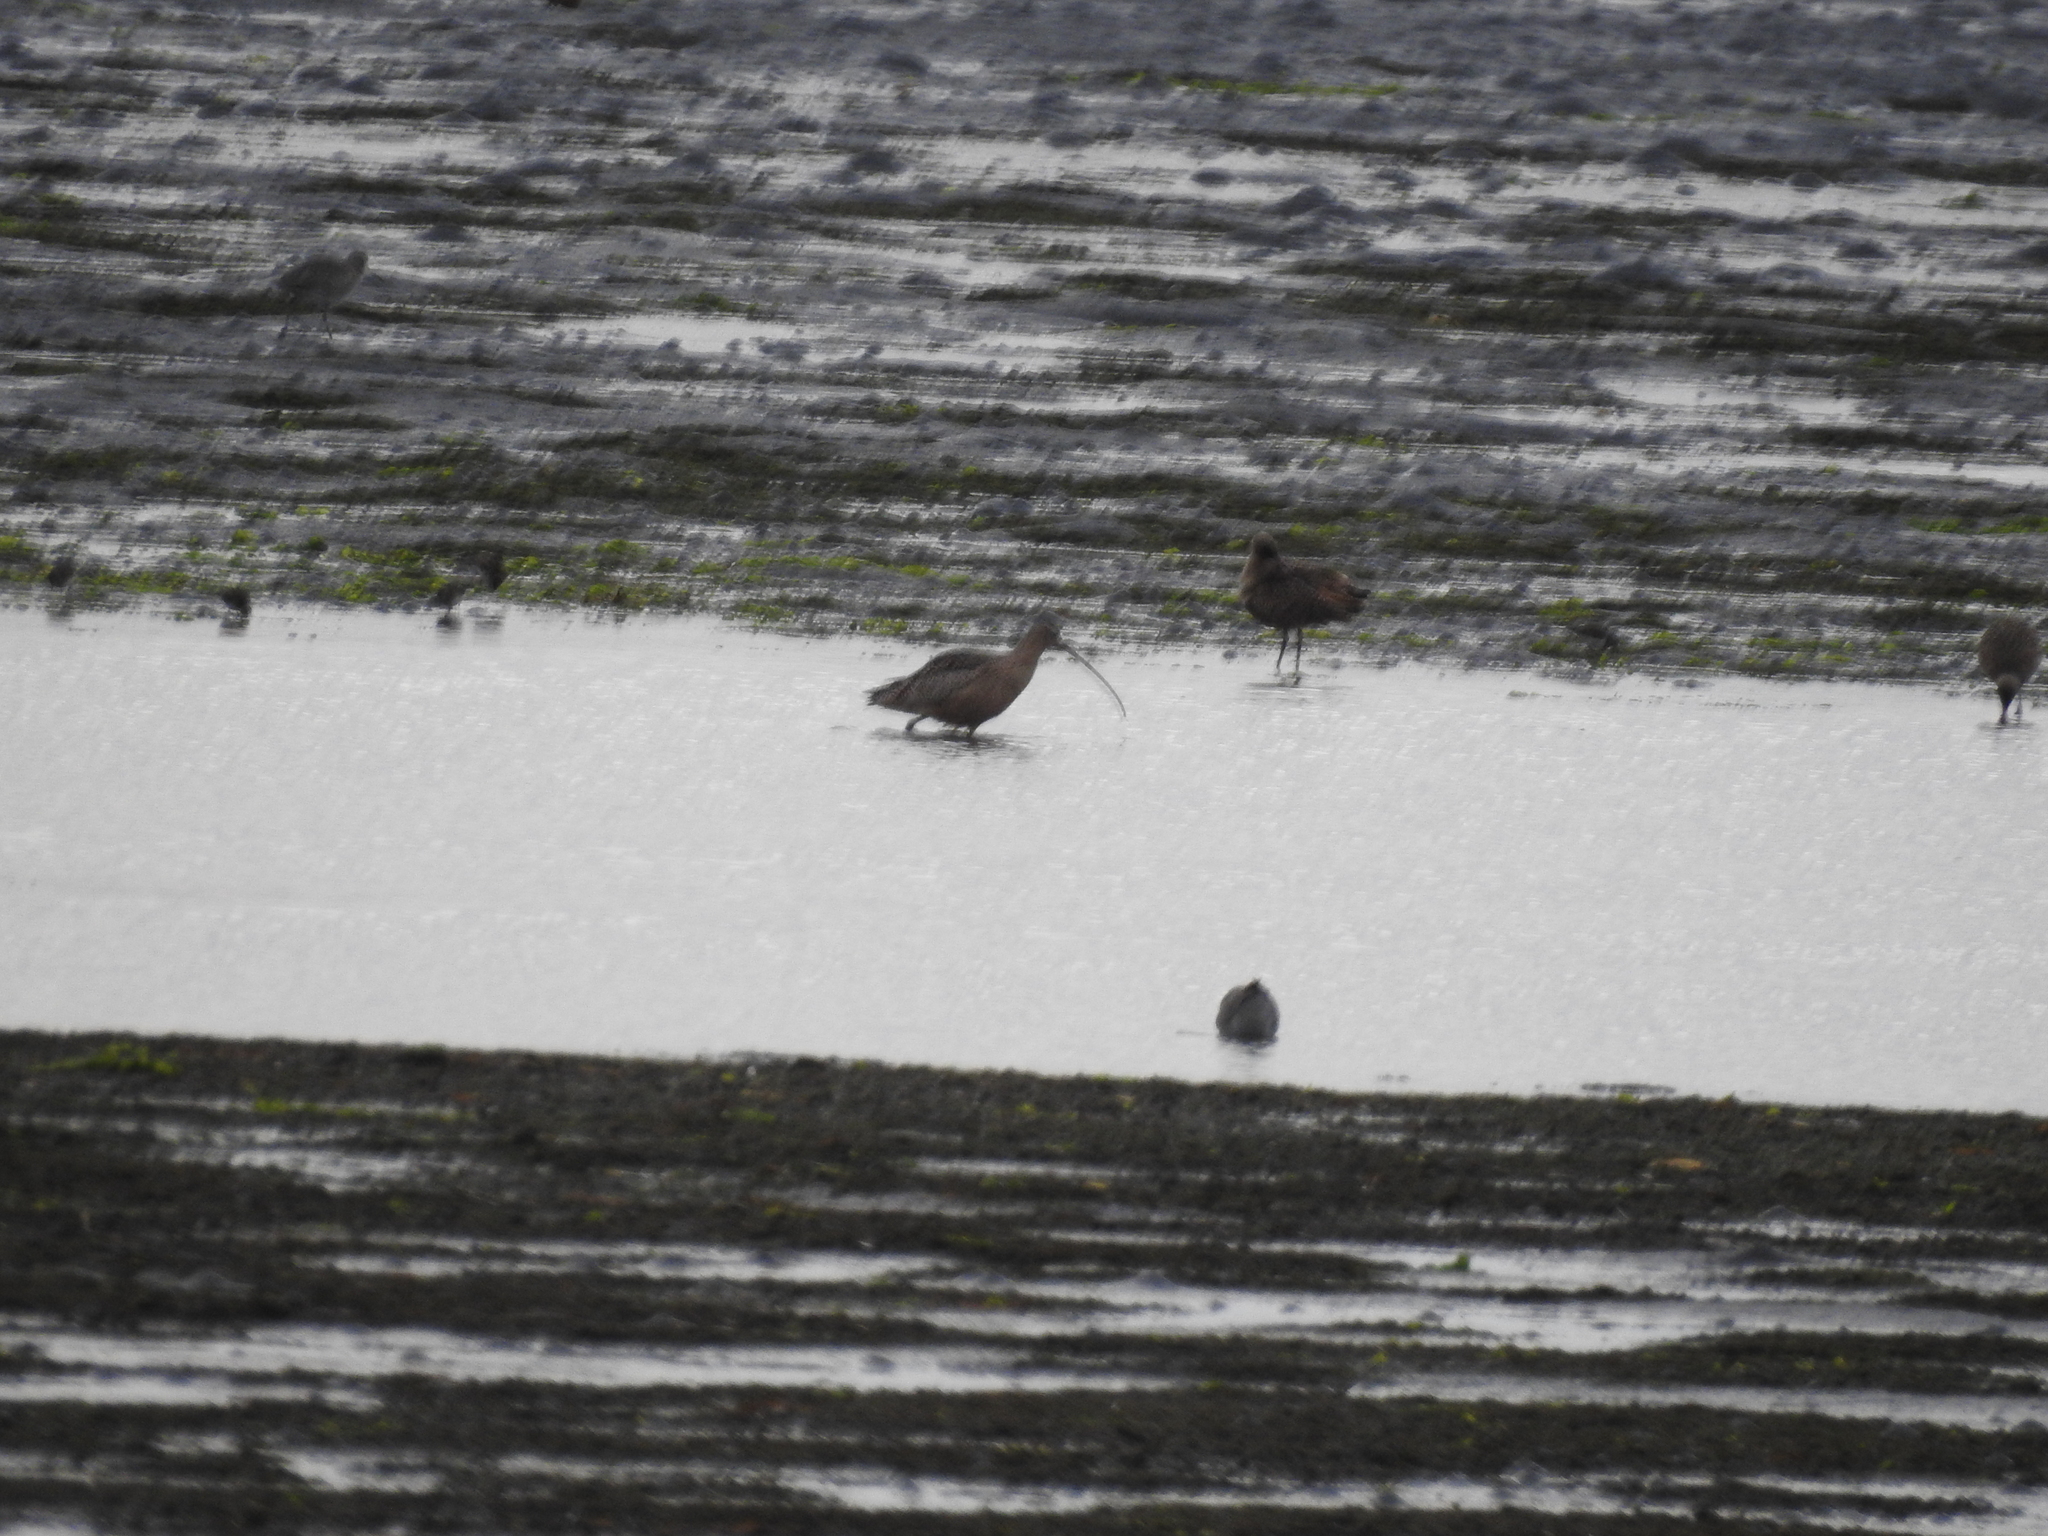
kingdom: Animalia
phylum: Chordata
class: Aves
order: Charadriiformes
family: Scolopacidae
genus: Numenius
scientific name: Numenius americanus
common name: Long-billed curlew
